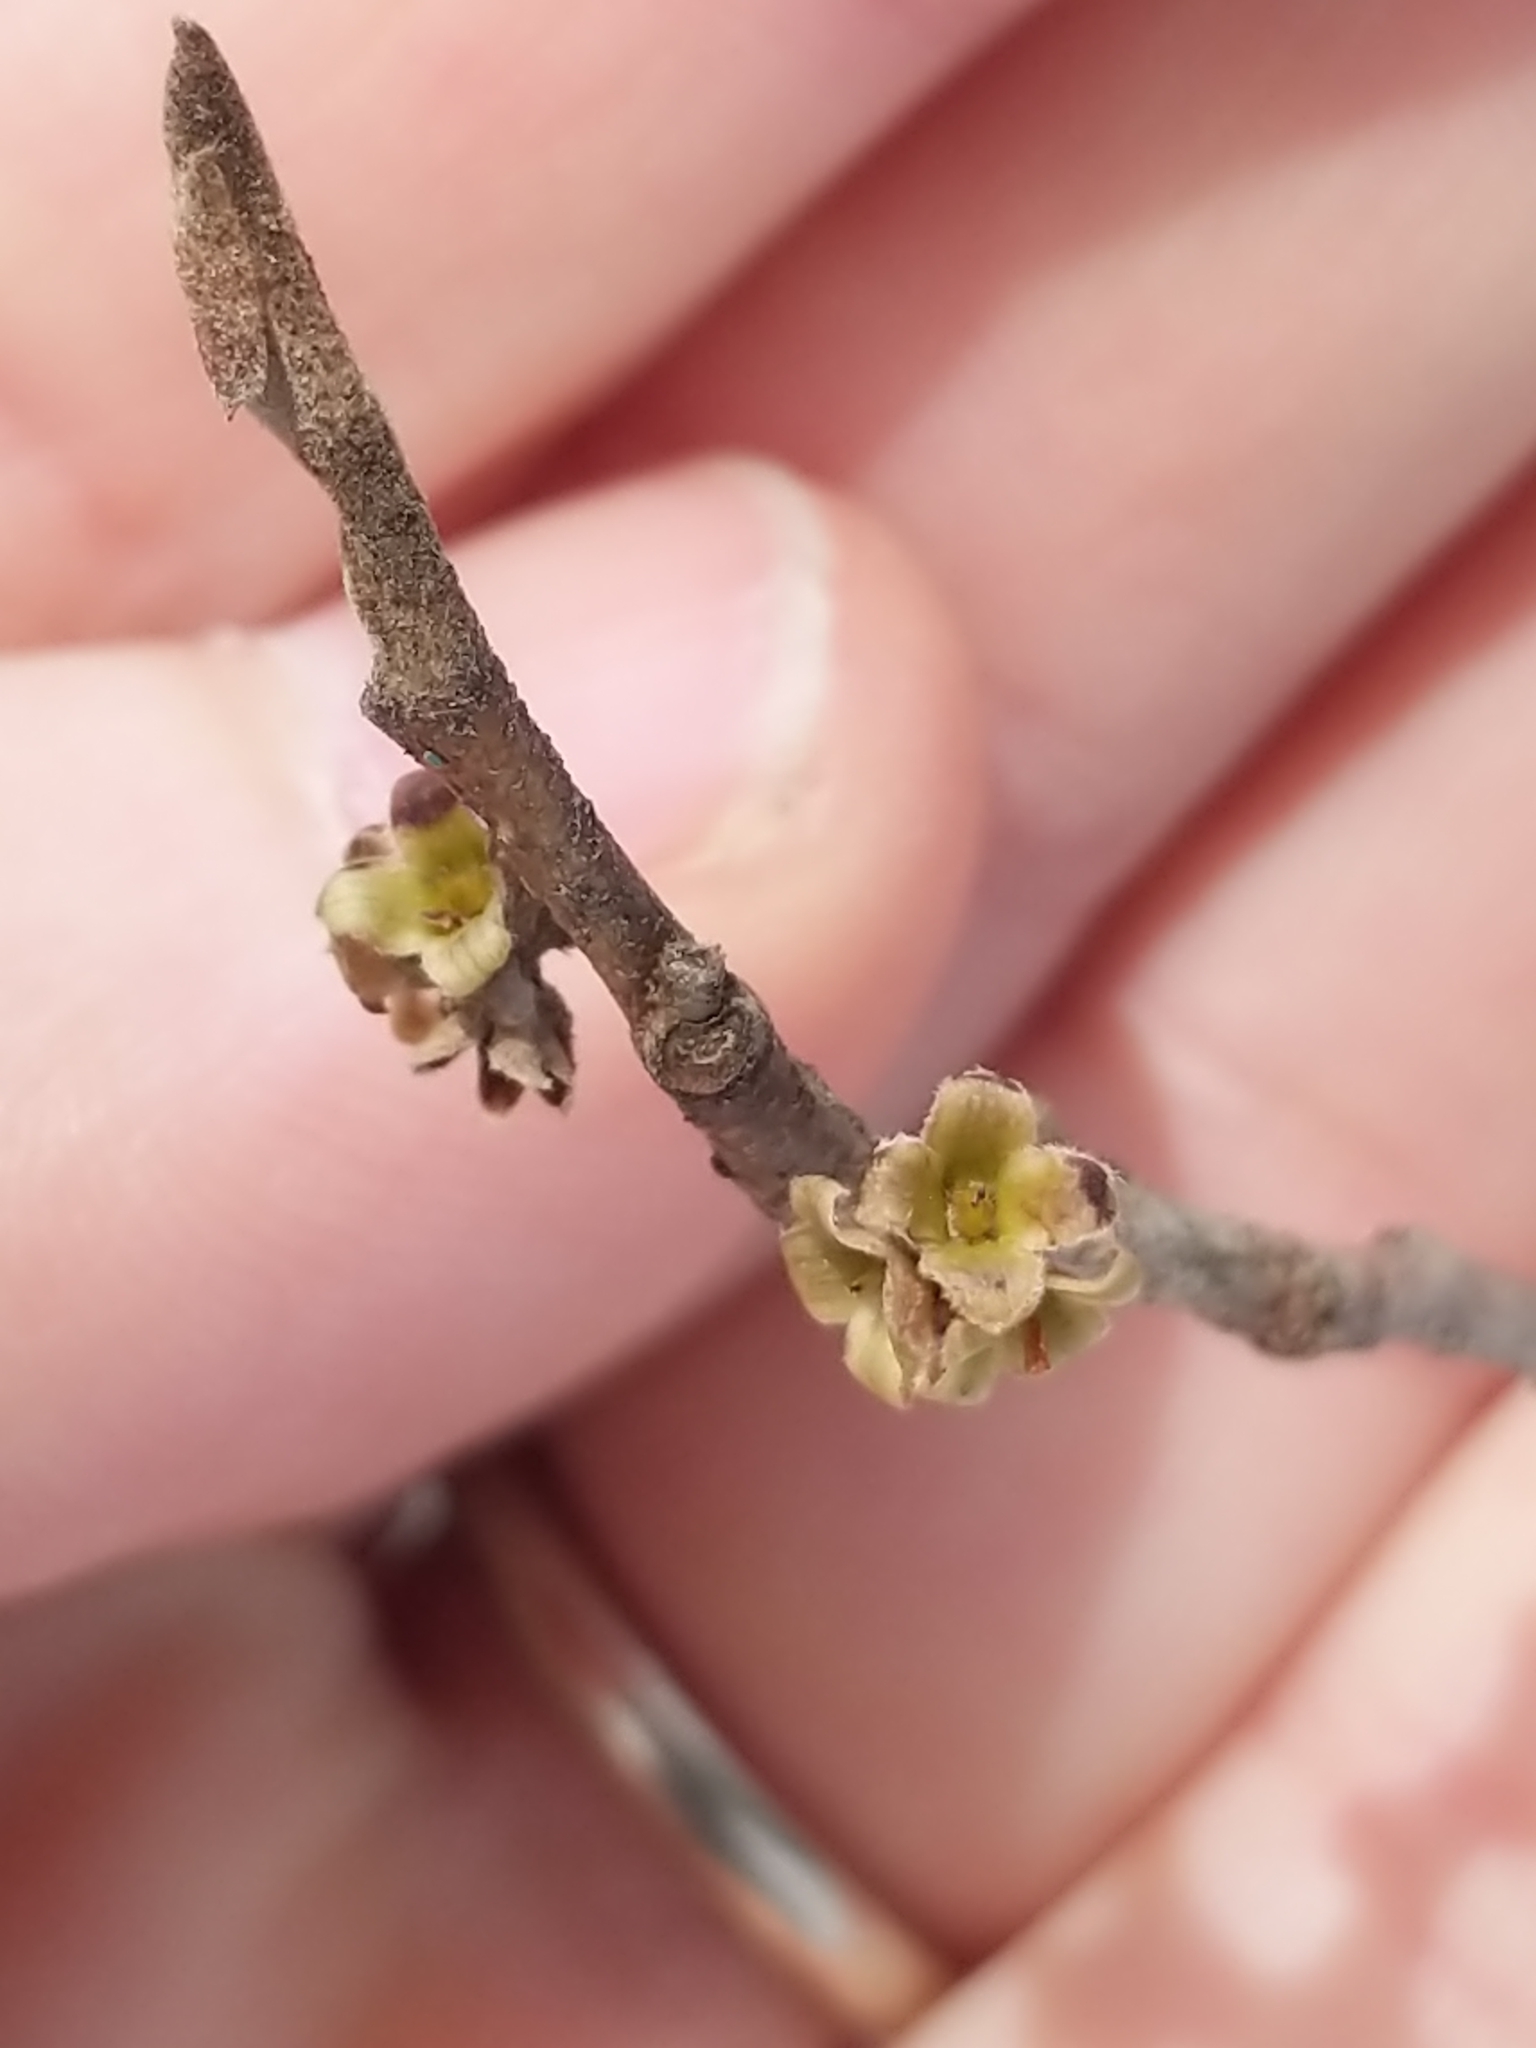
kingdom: Plantae
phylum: Tracheophyta
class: Magnoliopsida
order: Saxifragales
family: Hamamelidaceae
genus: Hamamelis
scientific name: Hamamelis virginiana
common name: Witch-hazel
